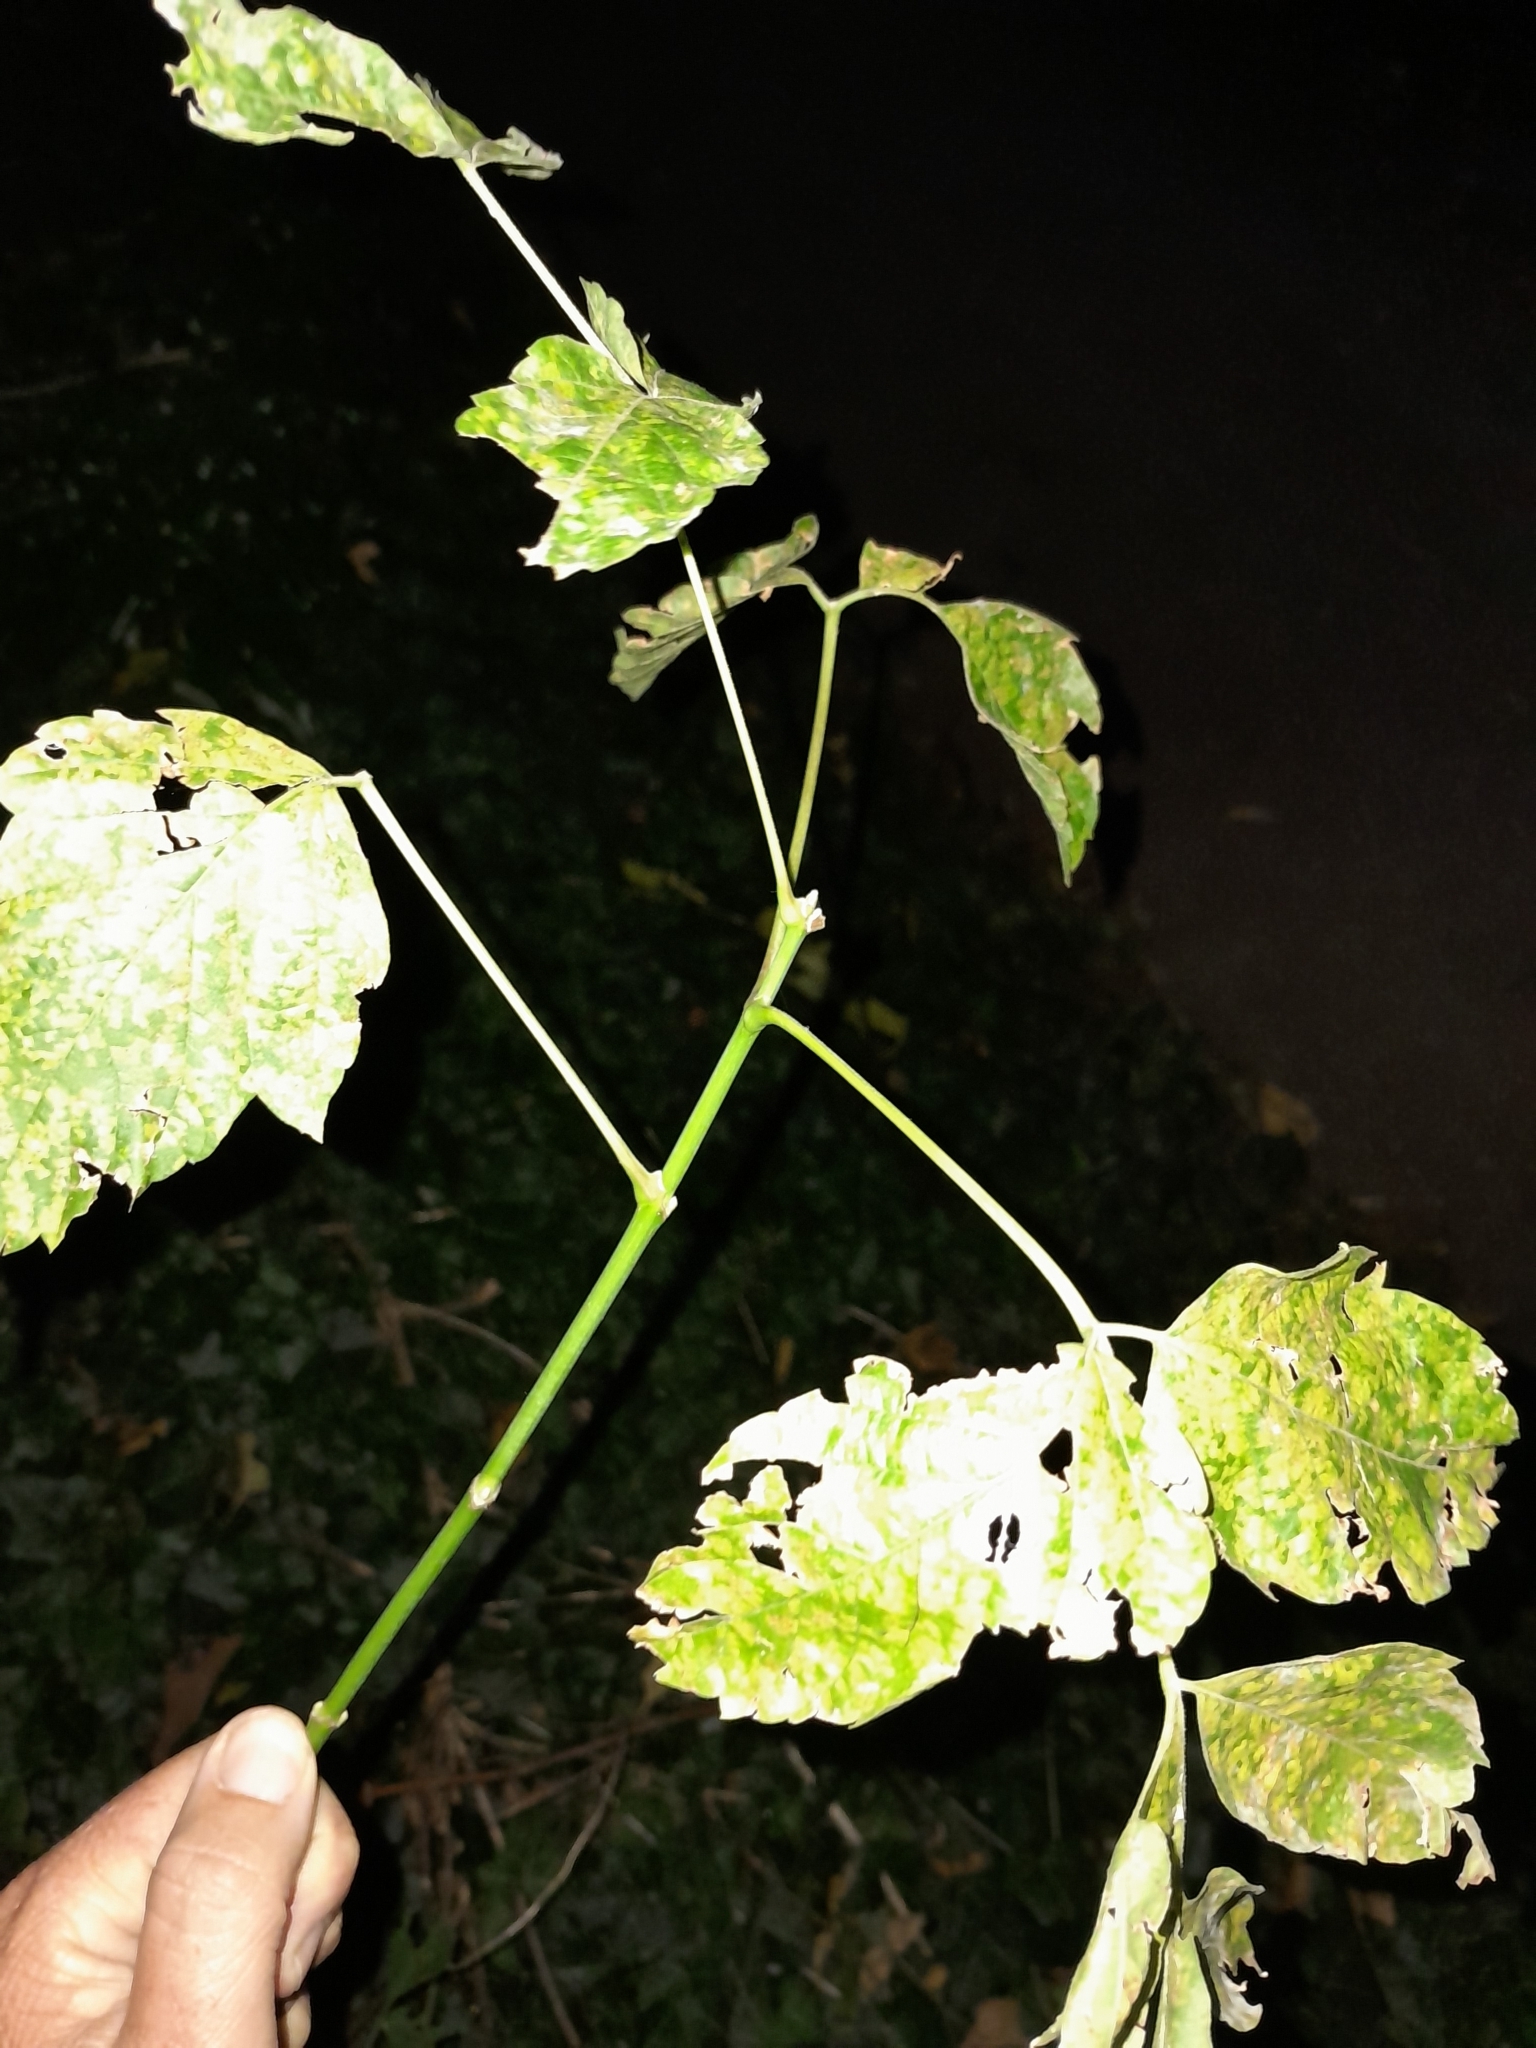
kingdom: Plantae
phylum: Tracheophyta
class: Magnoliopsida
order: Sapindales
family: Sapindaceae
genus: Acer
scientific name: Acer negundo
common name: Ashleaf maple
